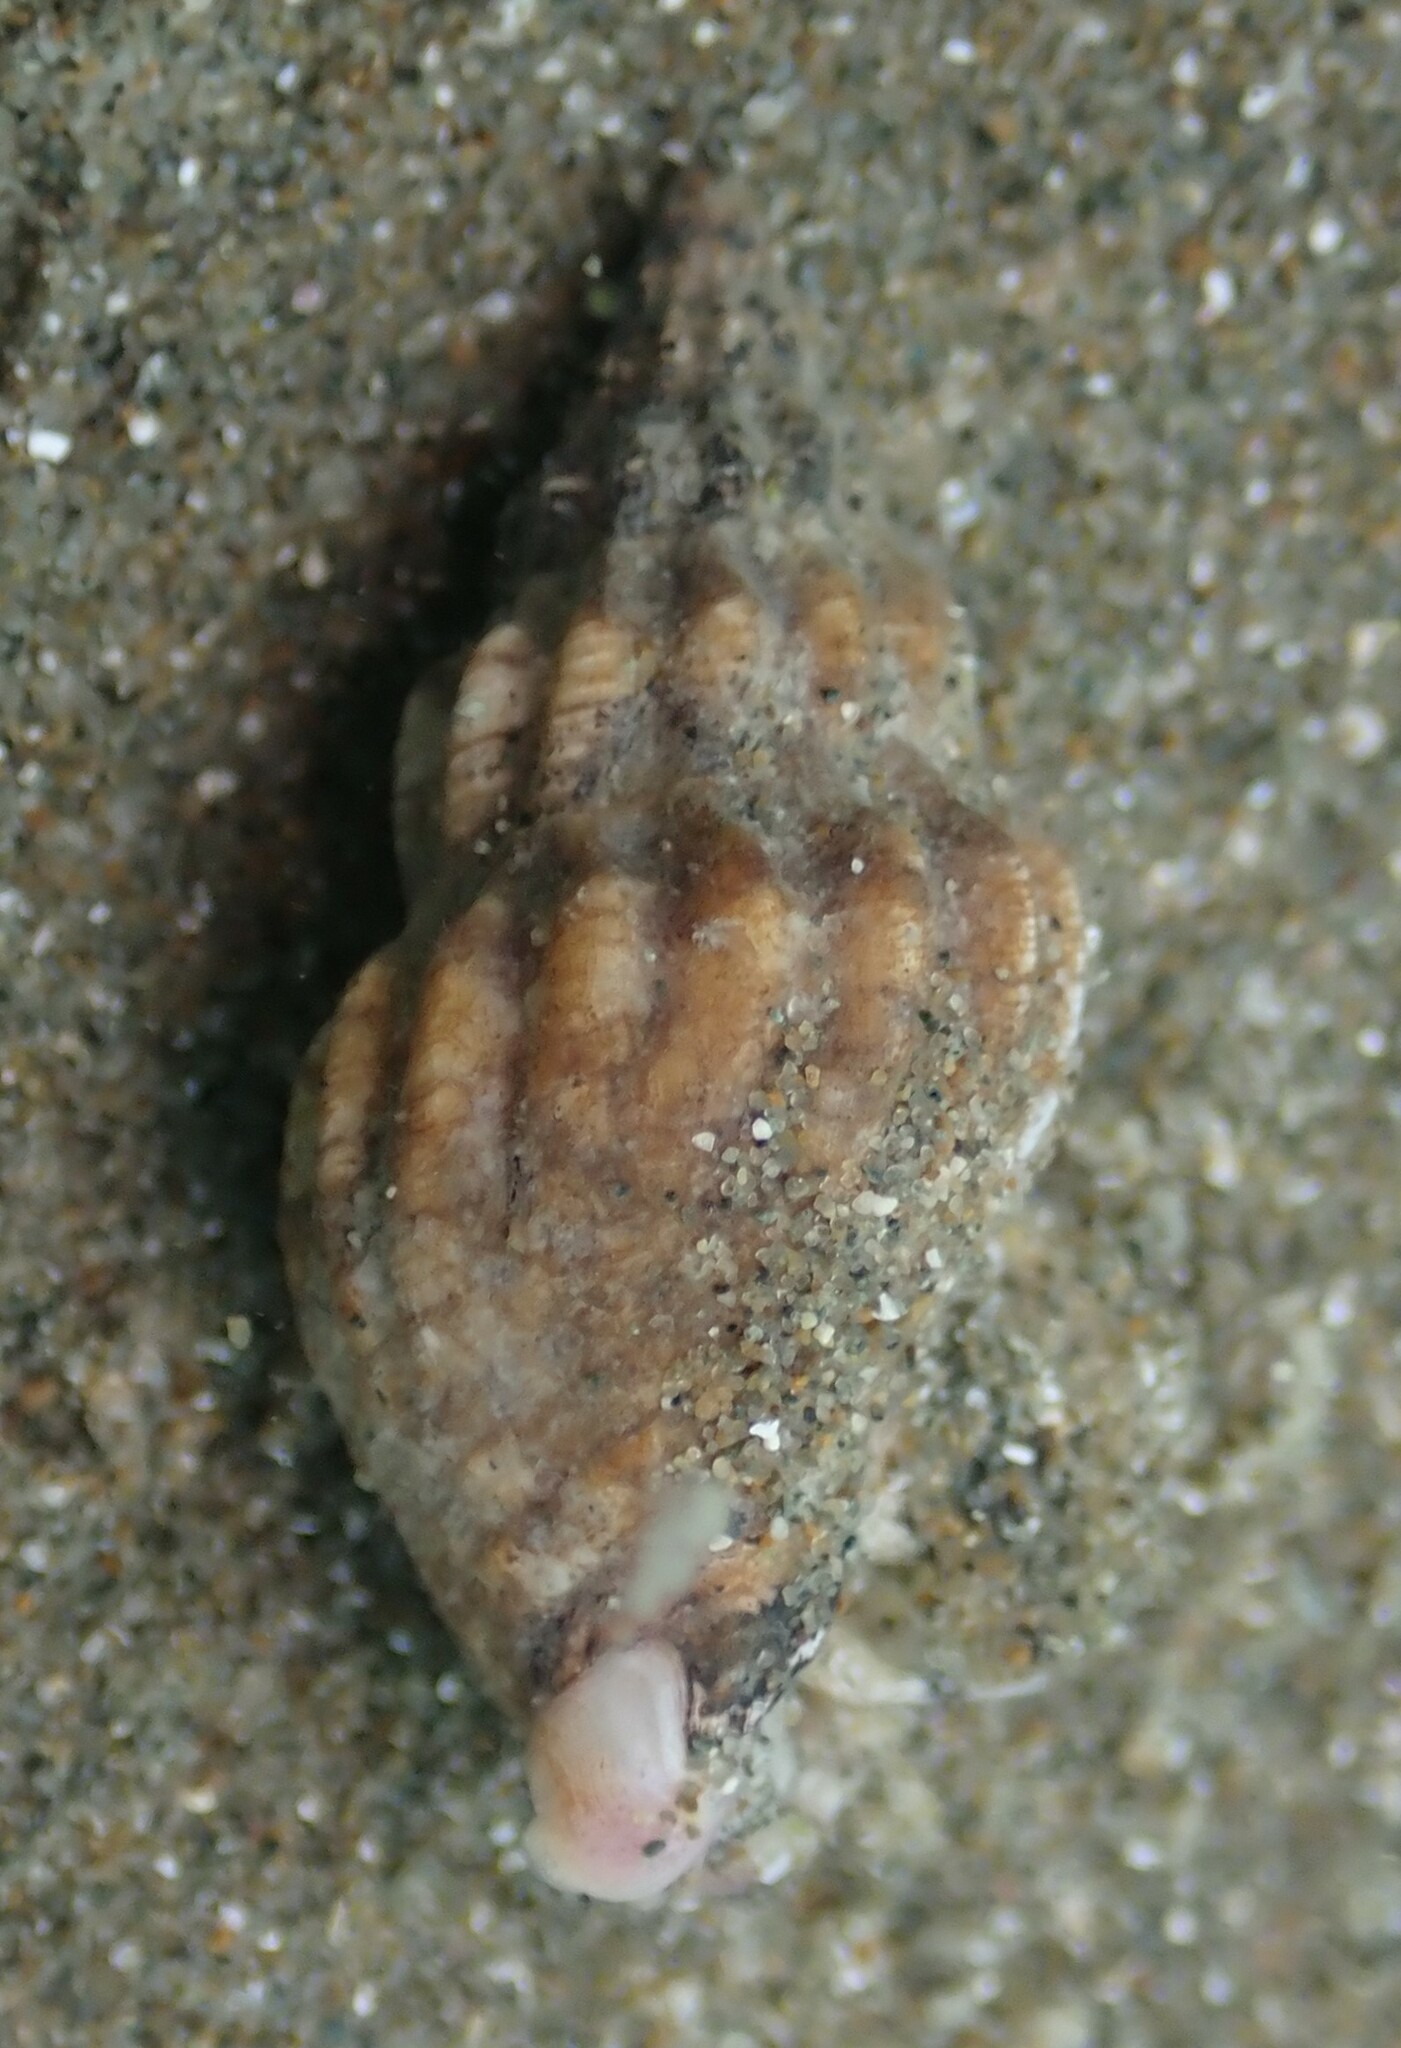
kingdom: Animalia
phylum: Mollusca
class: Gastropoda
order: Neogastropoda
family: Cominellidae
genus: Cominella
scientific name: Cominella quoyana
